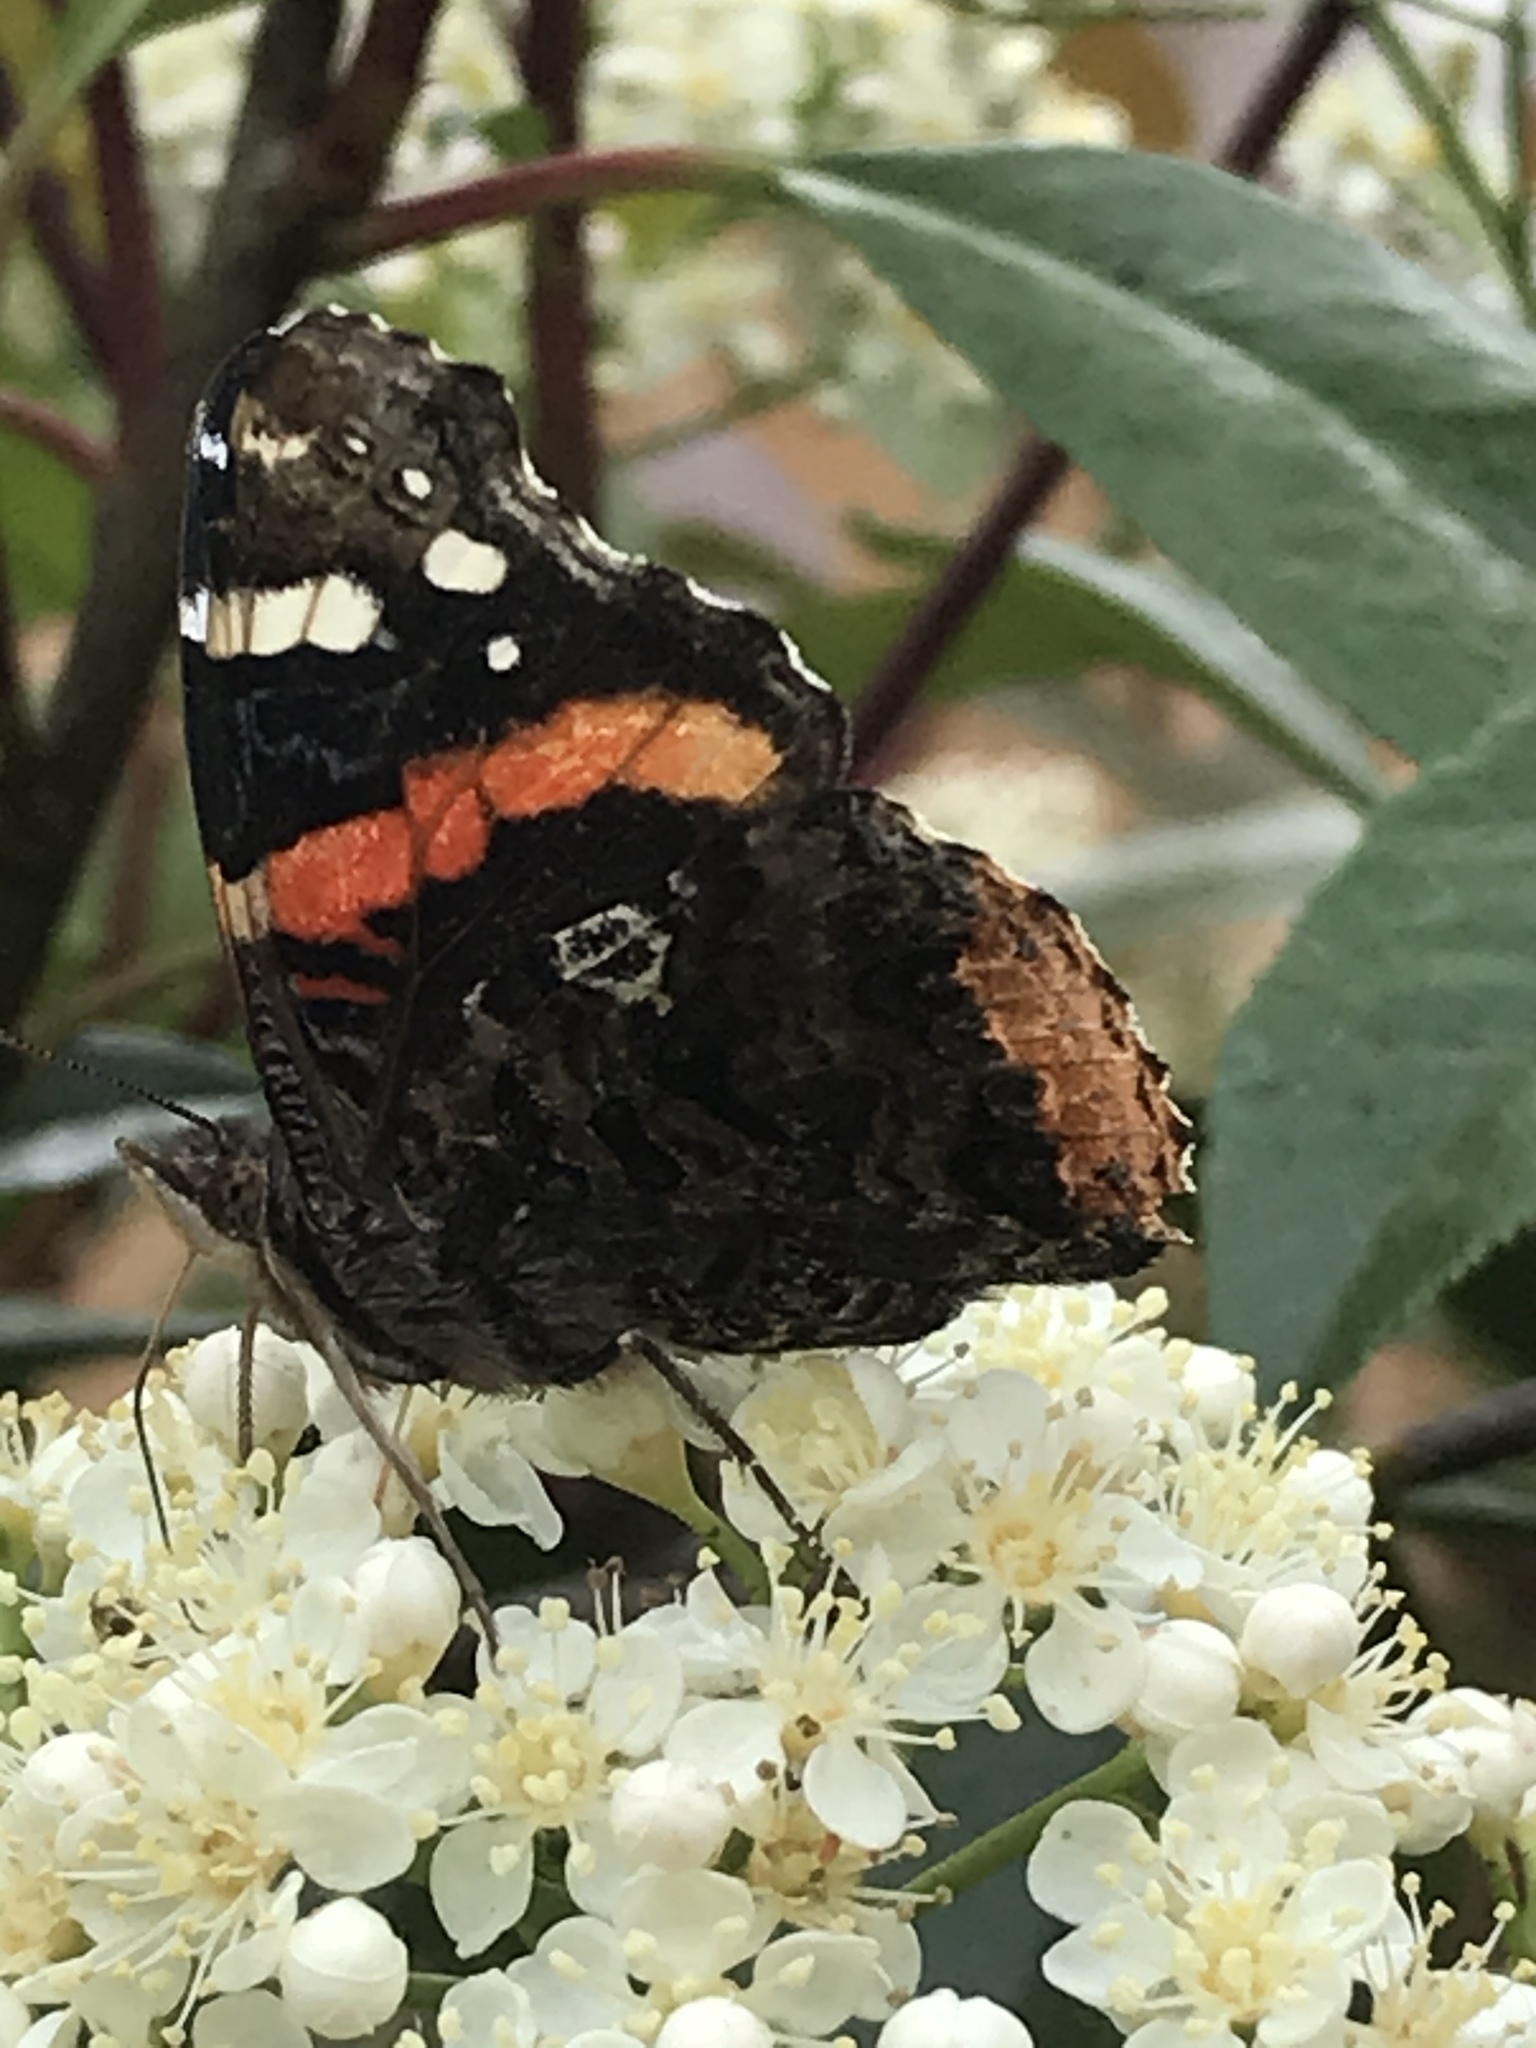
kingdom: Animalia
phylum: Arthropoda
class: Insecta
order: Lepidoptera
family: Nymphalidae
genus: Vanessa
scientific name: Vanessa atalanta
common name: Red admiral
